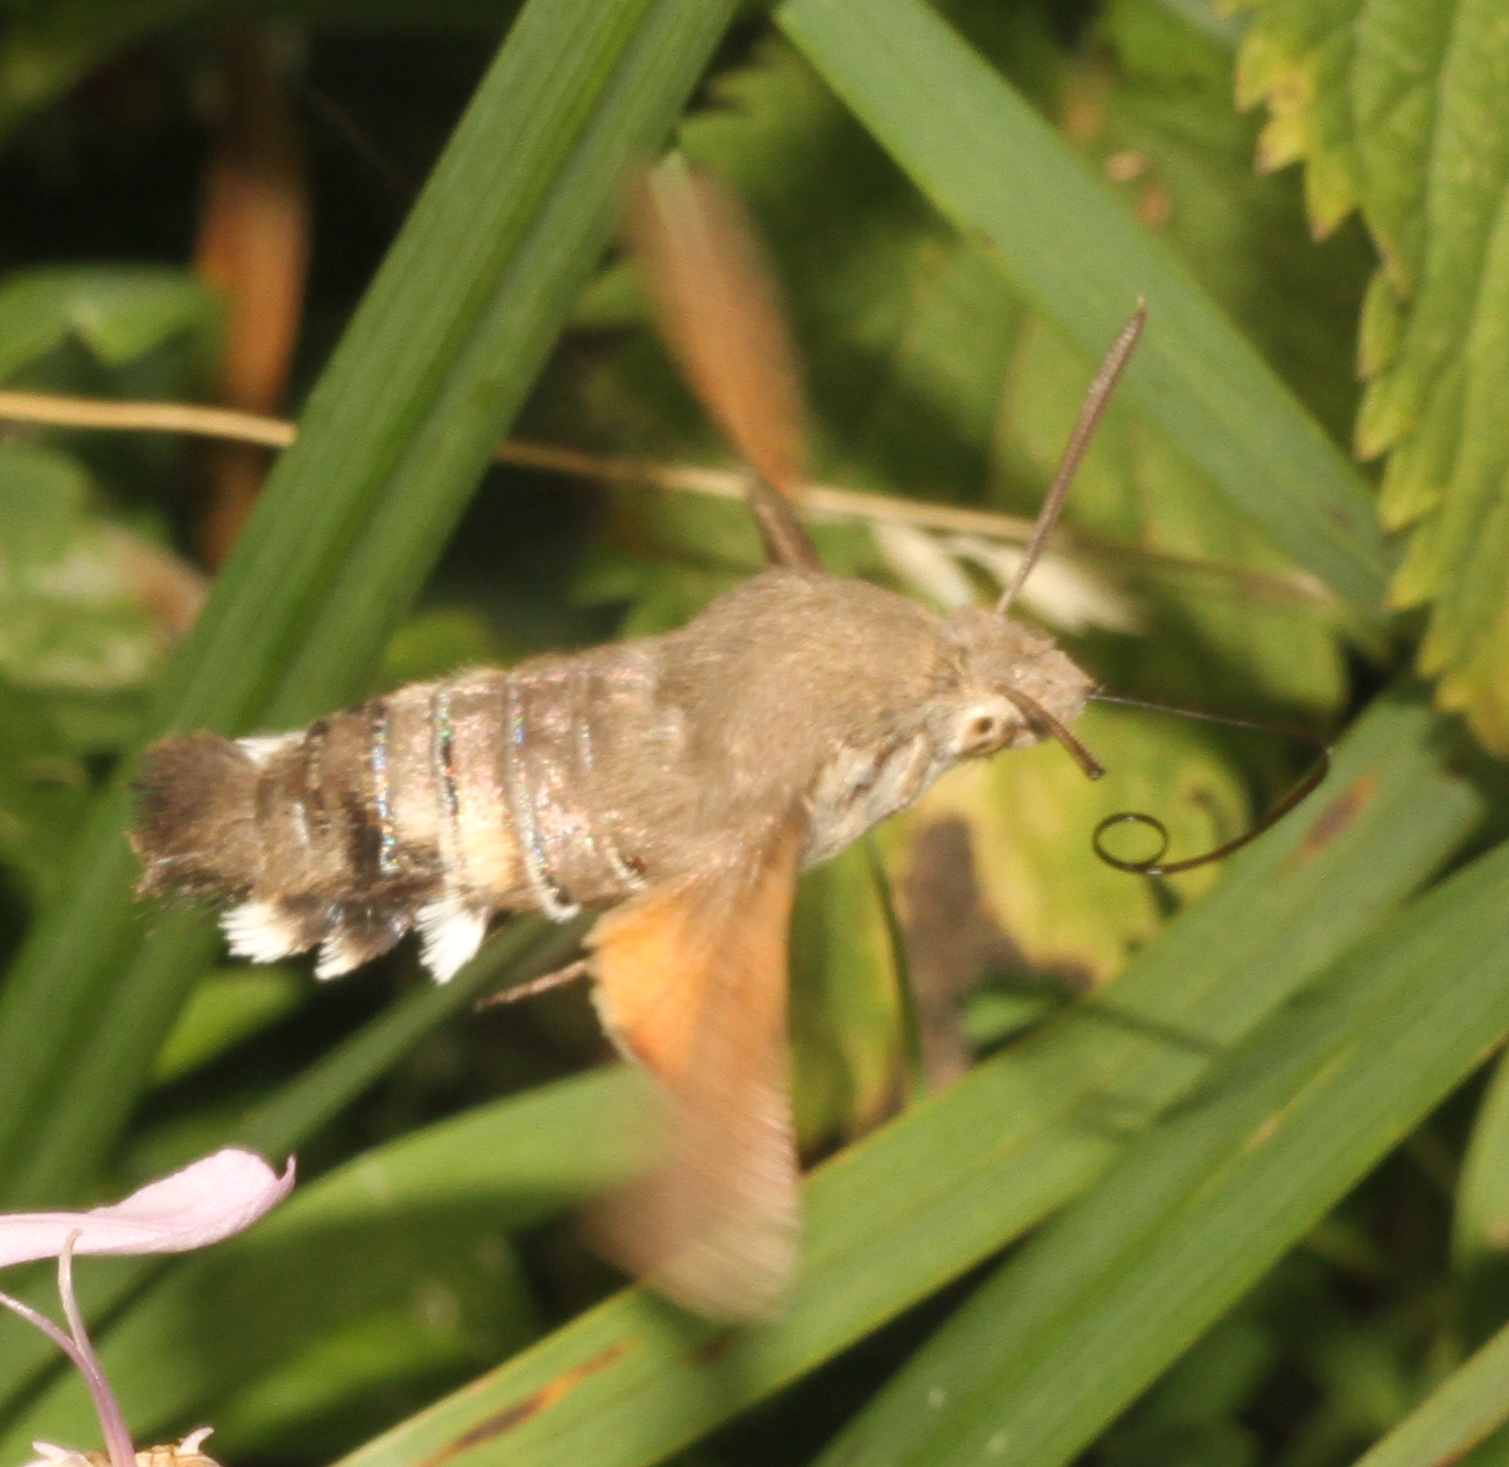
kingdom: Animalia
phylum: Arthropoda
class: Insecta
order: Lepidoptera
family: Sphingidae
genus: Macroglossum
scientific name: Macroglossum stellatarum
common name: Humming-bird hawk-moth
